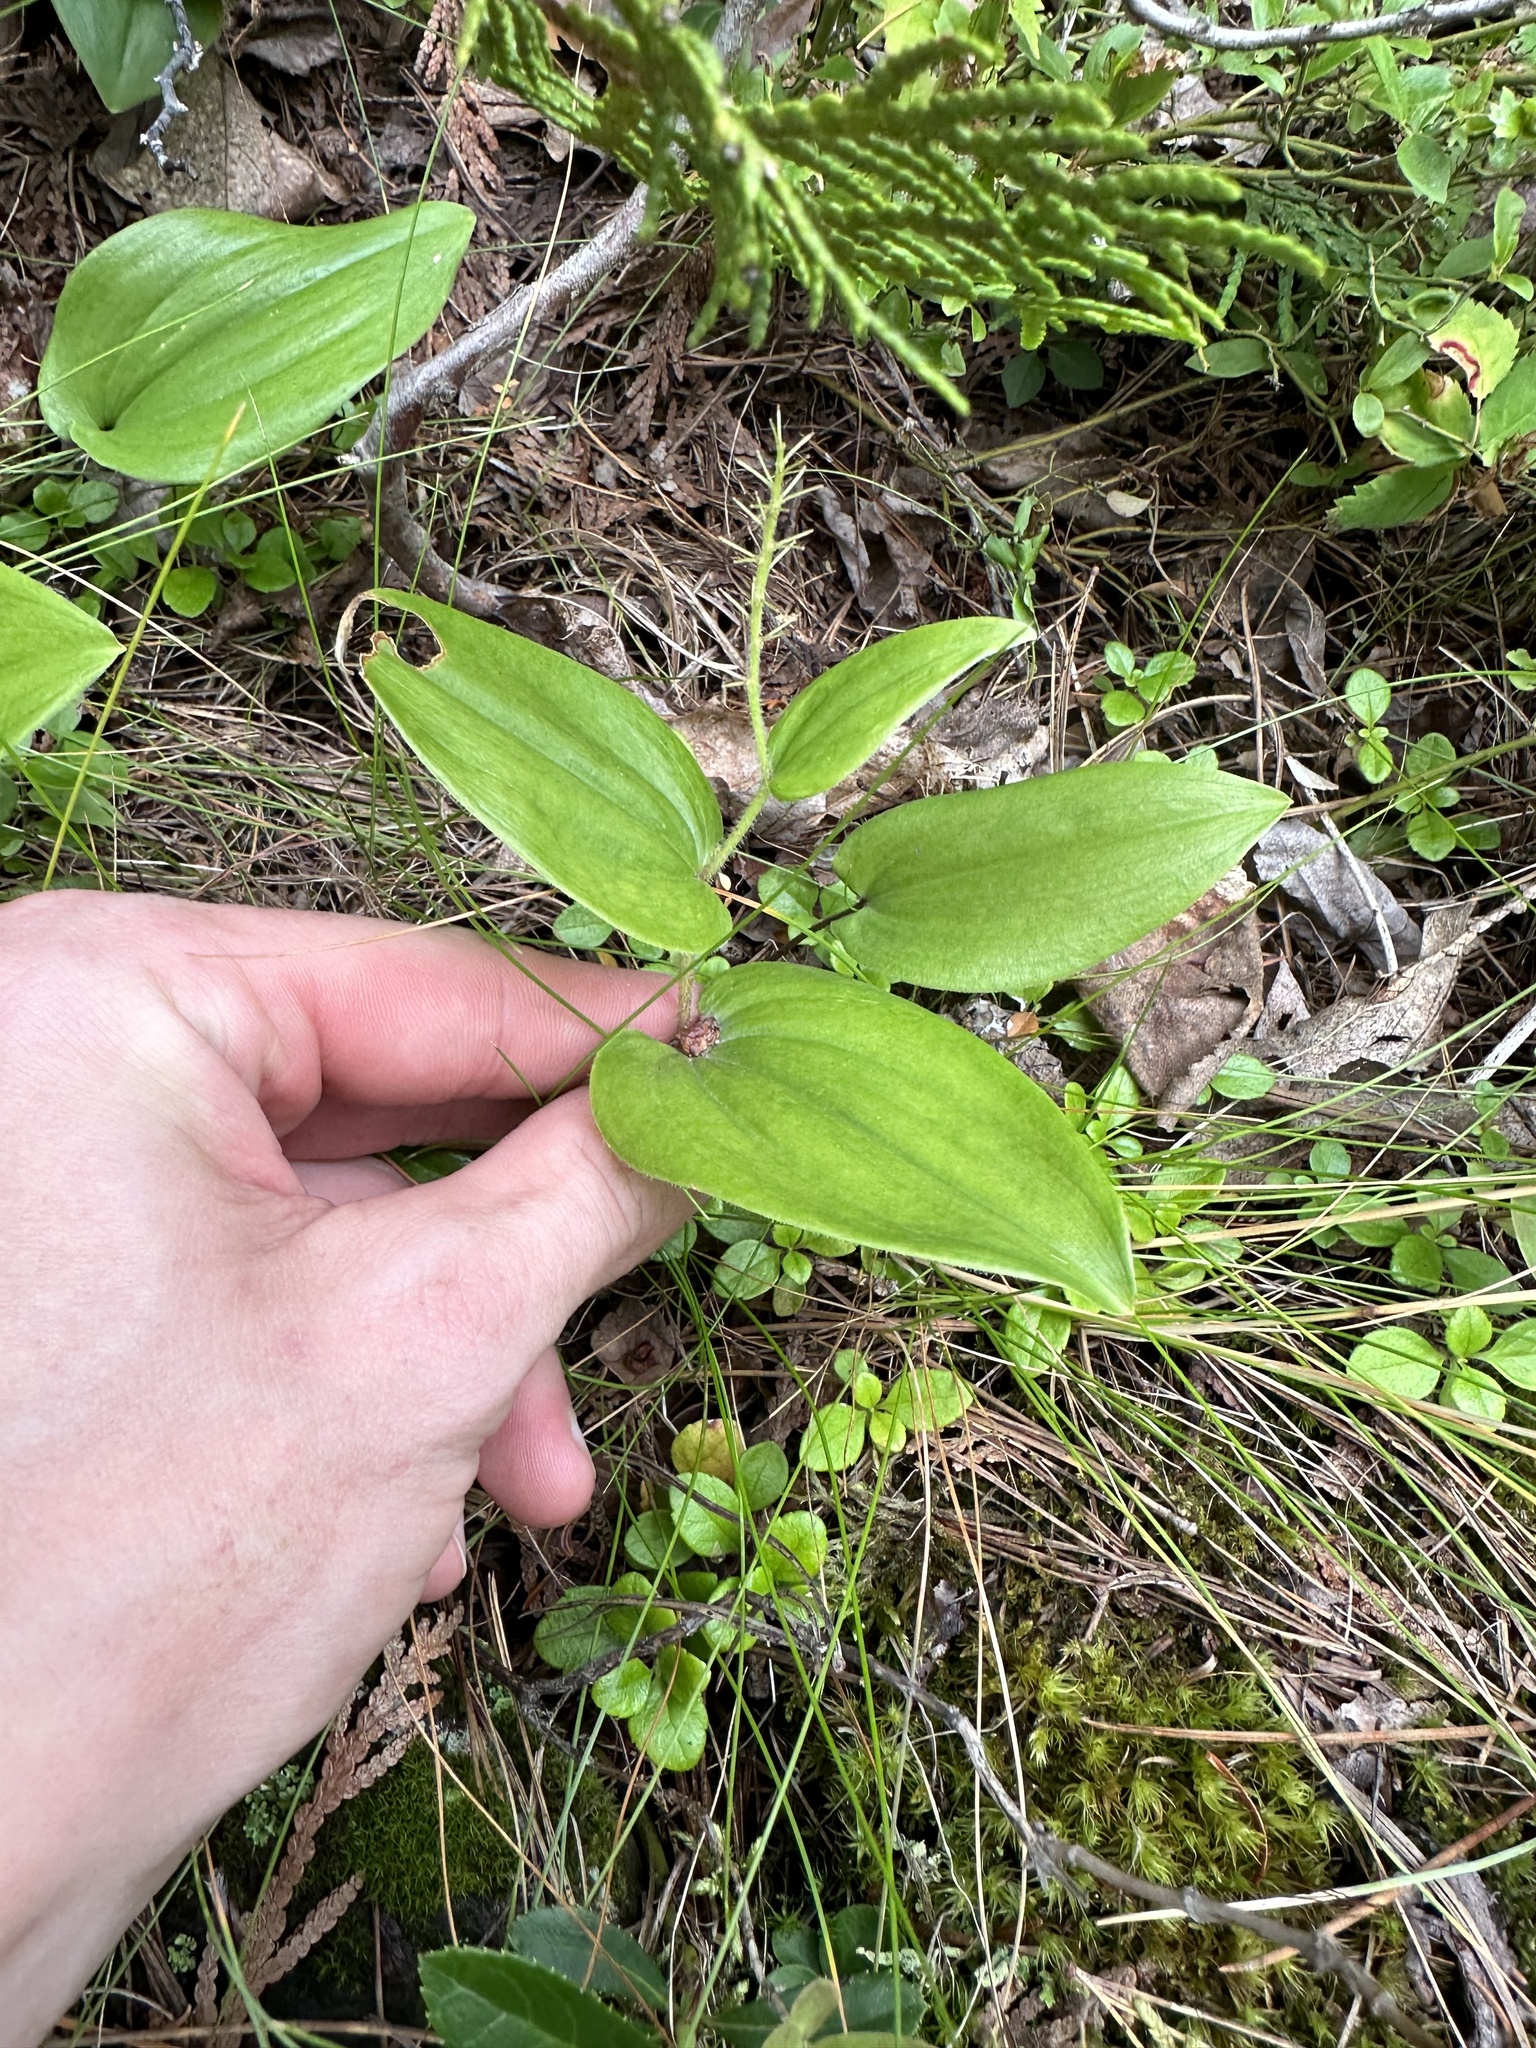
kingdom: Plantae
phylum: Tracheophyta
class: Liliopsida
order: Asparagales
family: Asparagaceae
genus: Maianthemum
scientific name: Maianthemum canadense
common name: False lily-of-the-valley
